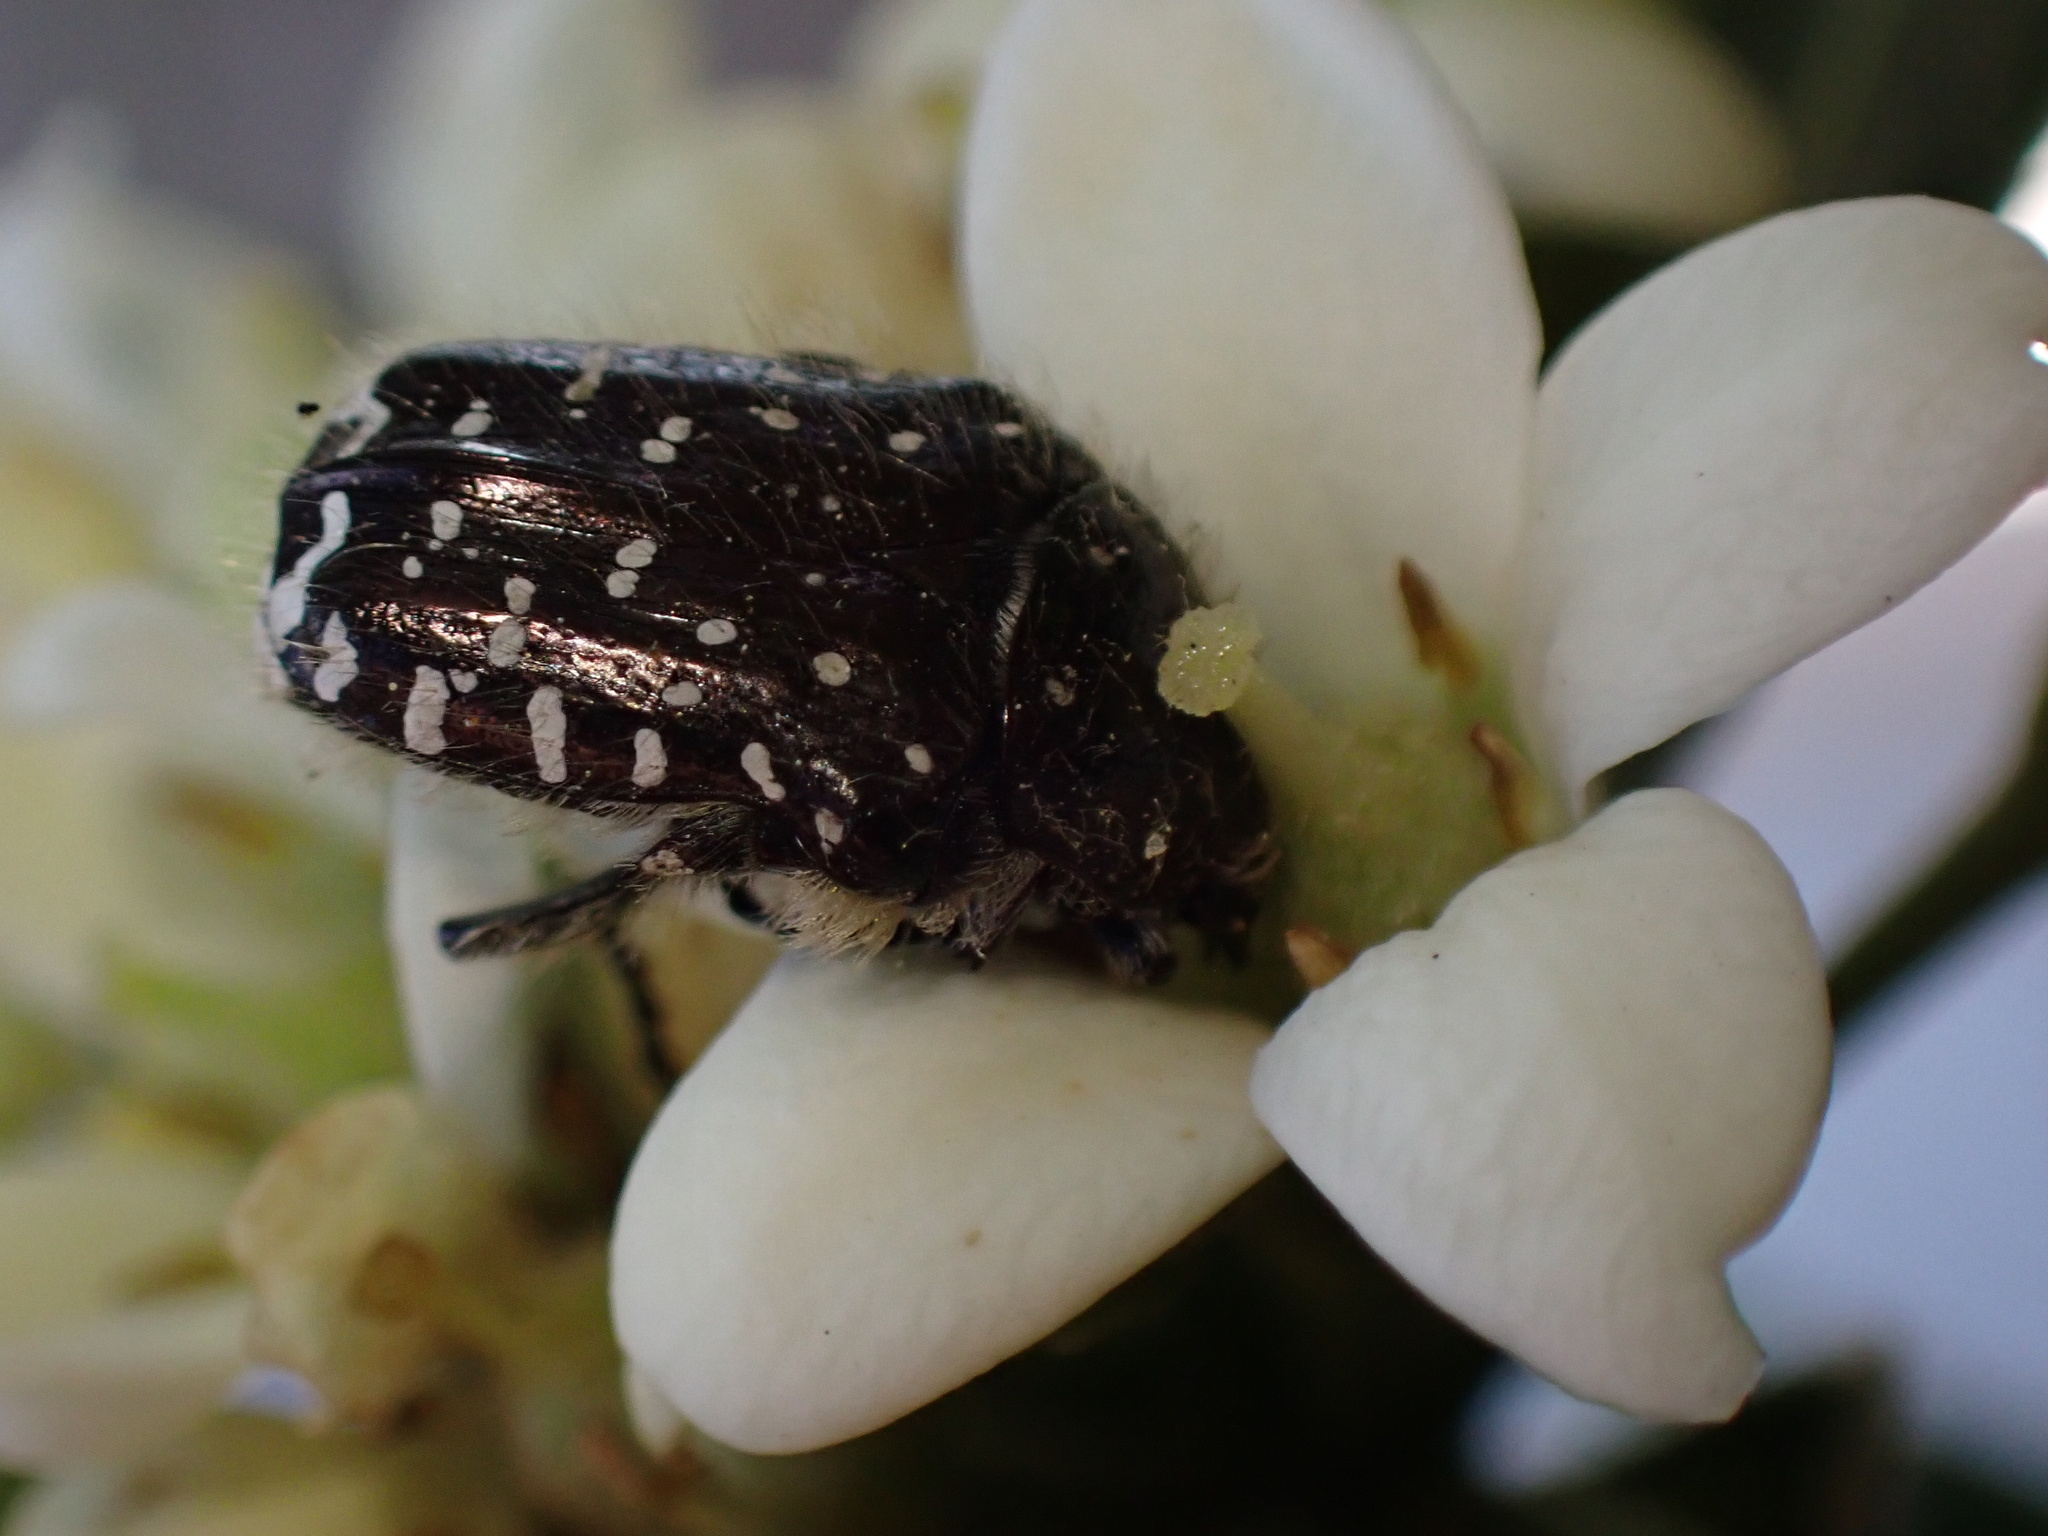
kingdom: Animalia
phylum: Arthropoda
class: Insecta
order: Coleoptera
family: Scarabaeidae
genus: Oxythyrea
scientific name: Oxythyrea funesta
